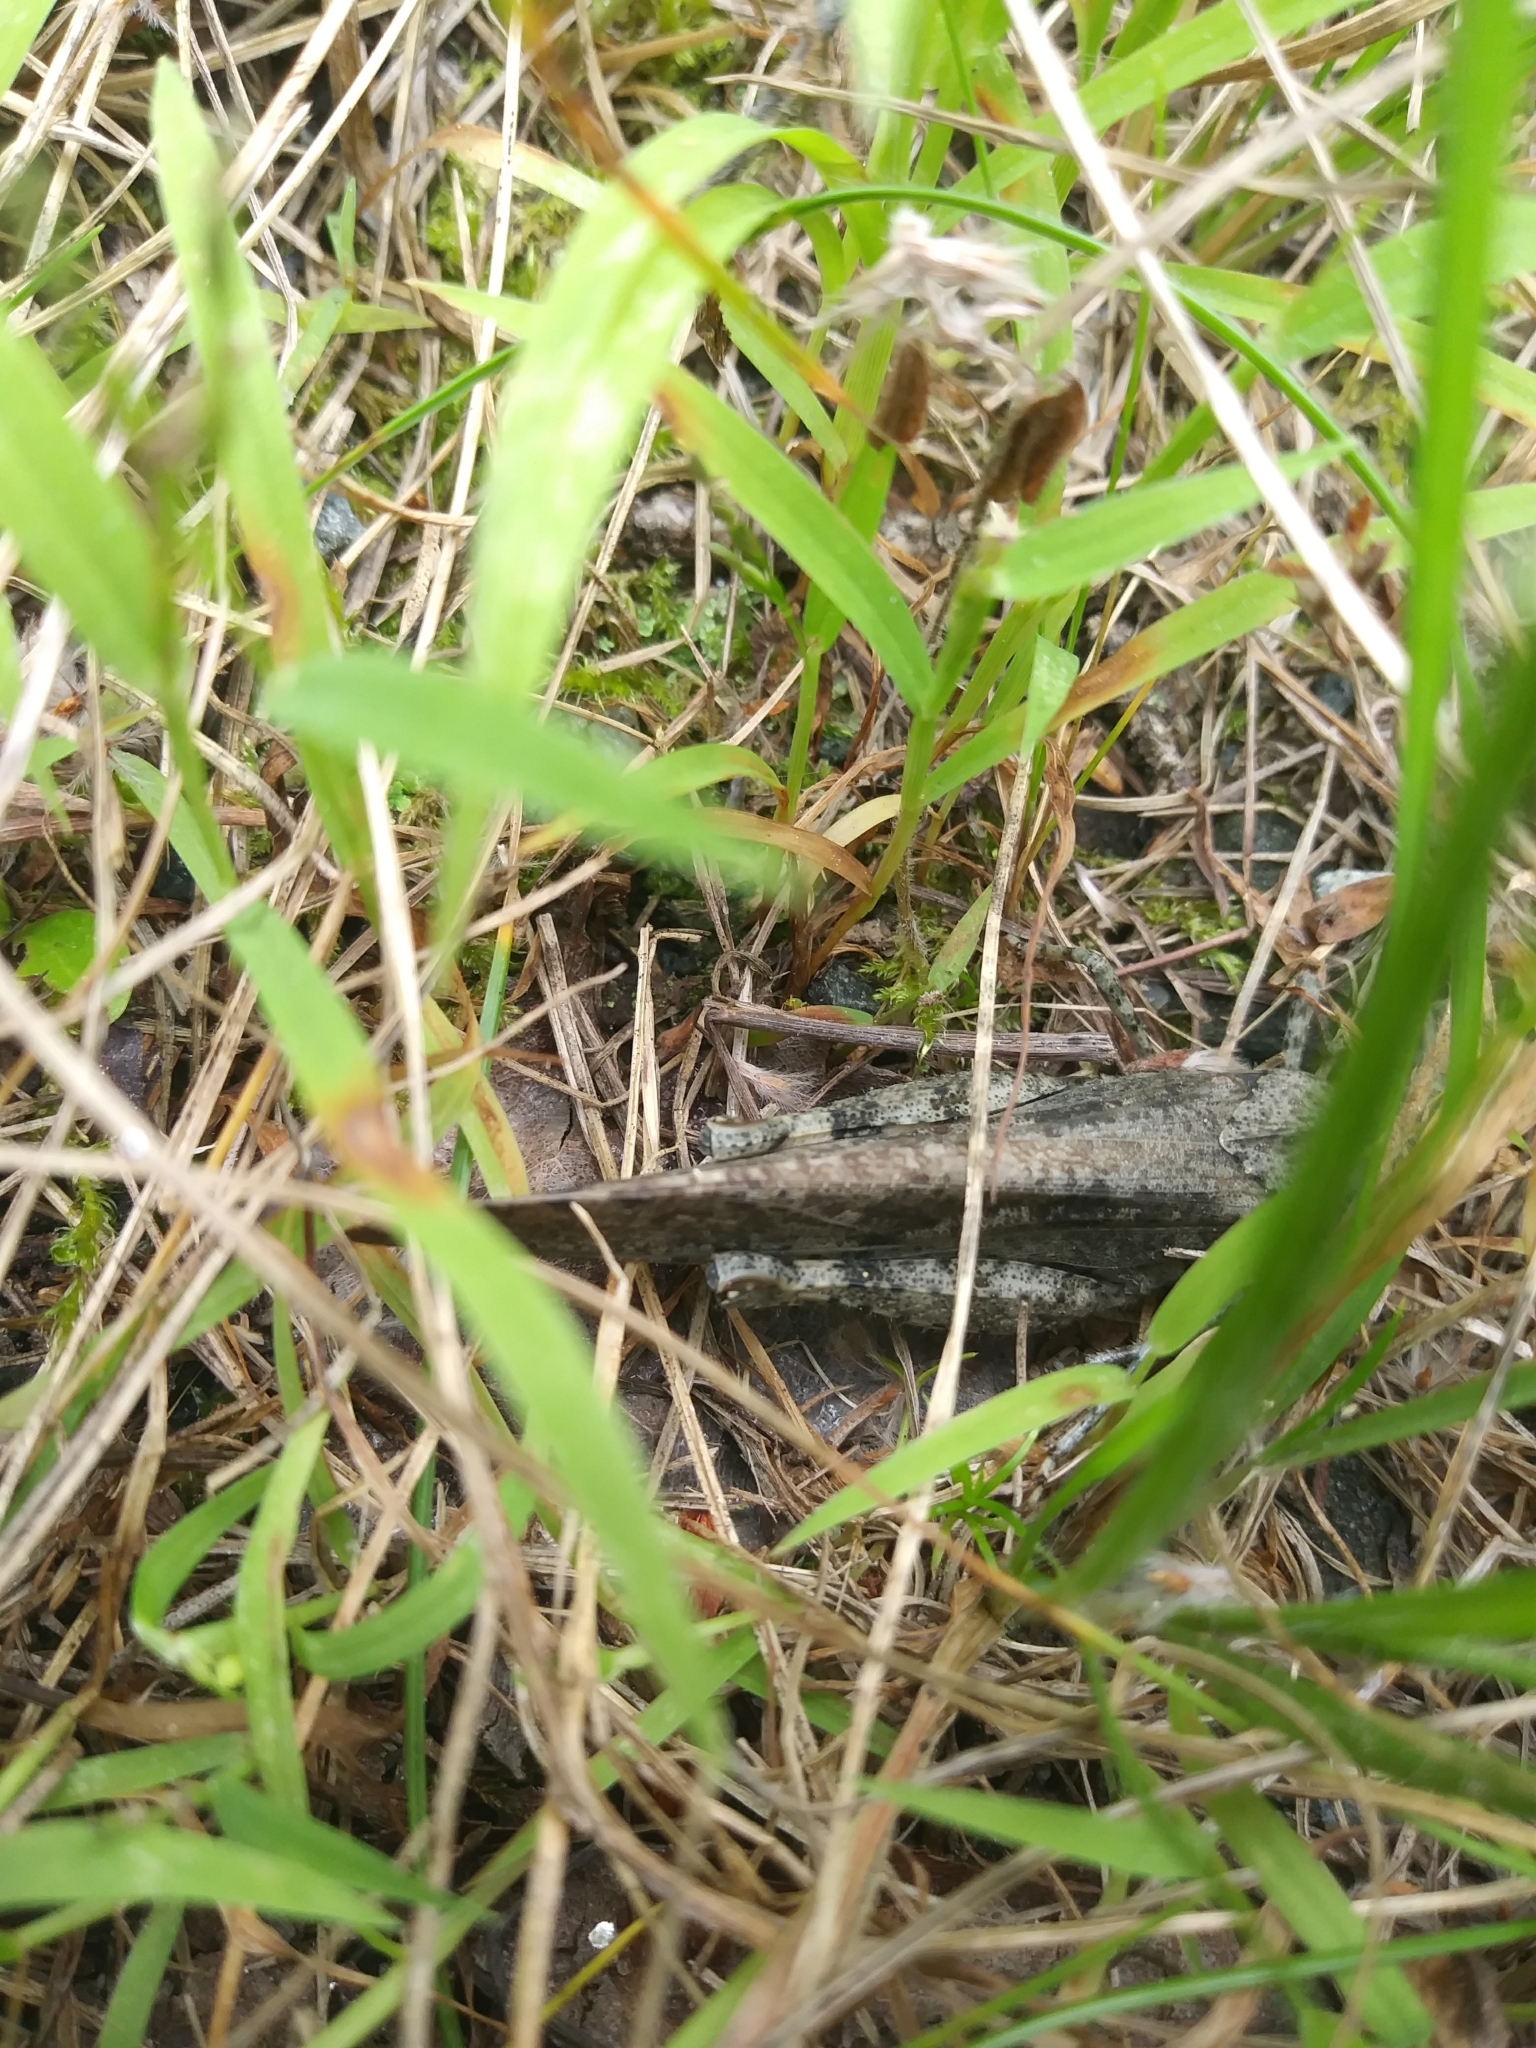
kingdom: Animalia
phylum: Arthropoda
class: Insecta
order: Orthoptera
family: Acrididae
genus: Dissosteira
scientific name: Dissosteira carolina
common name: Carolina grasshopper
